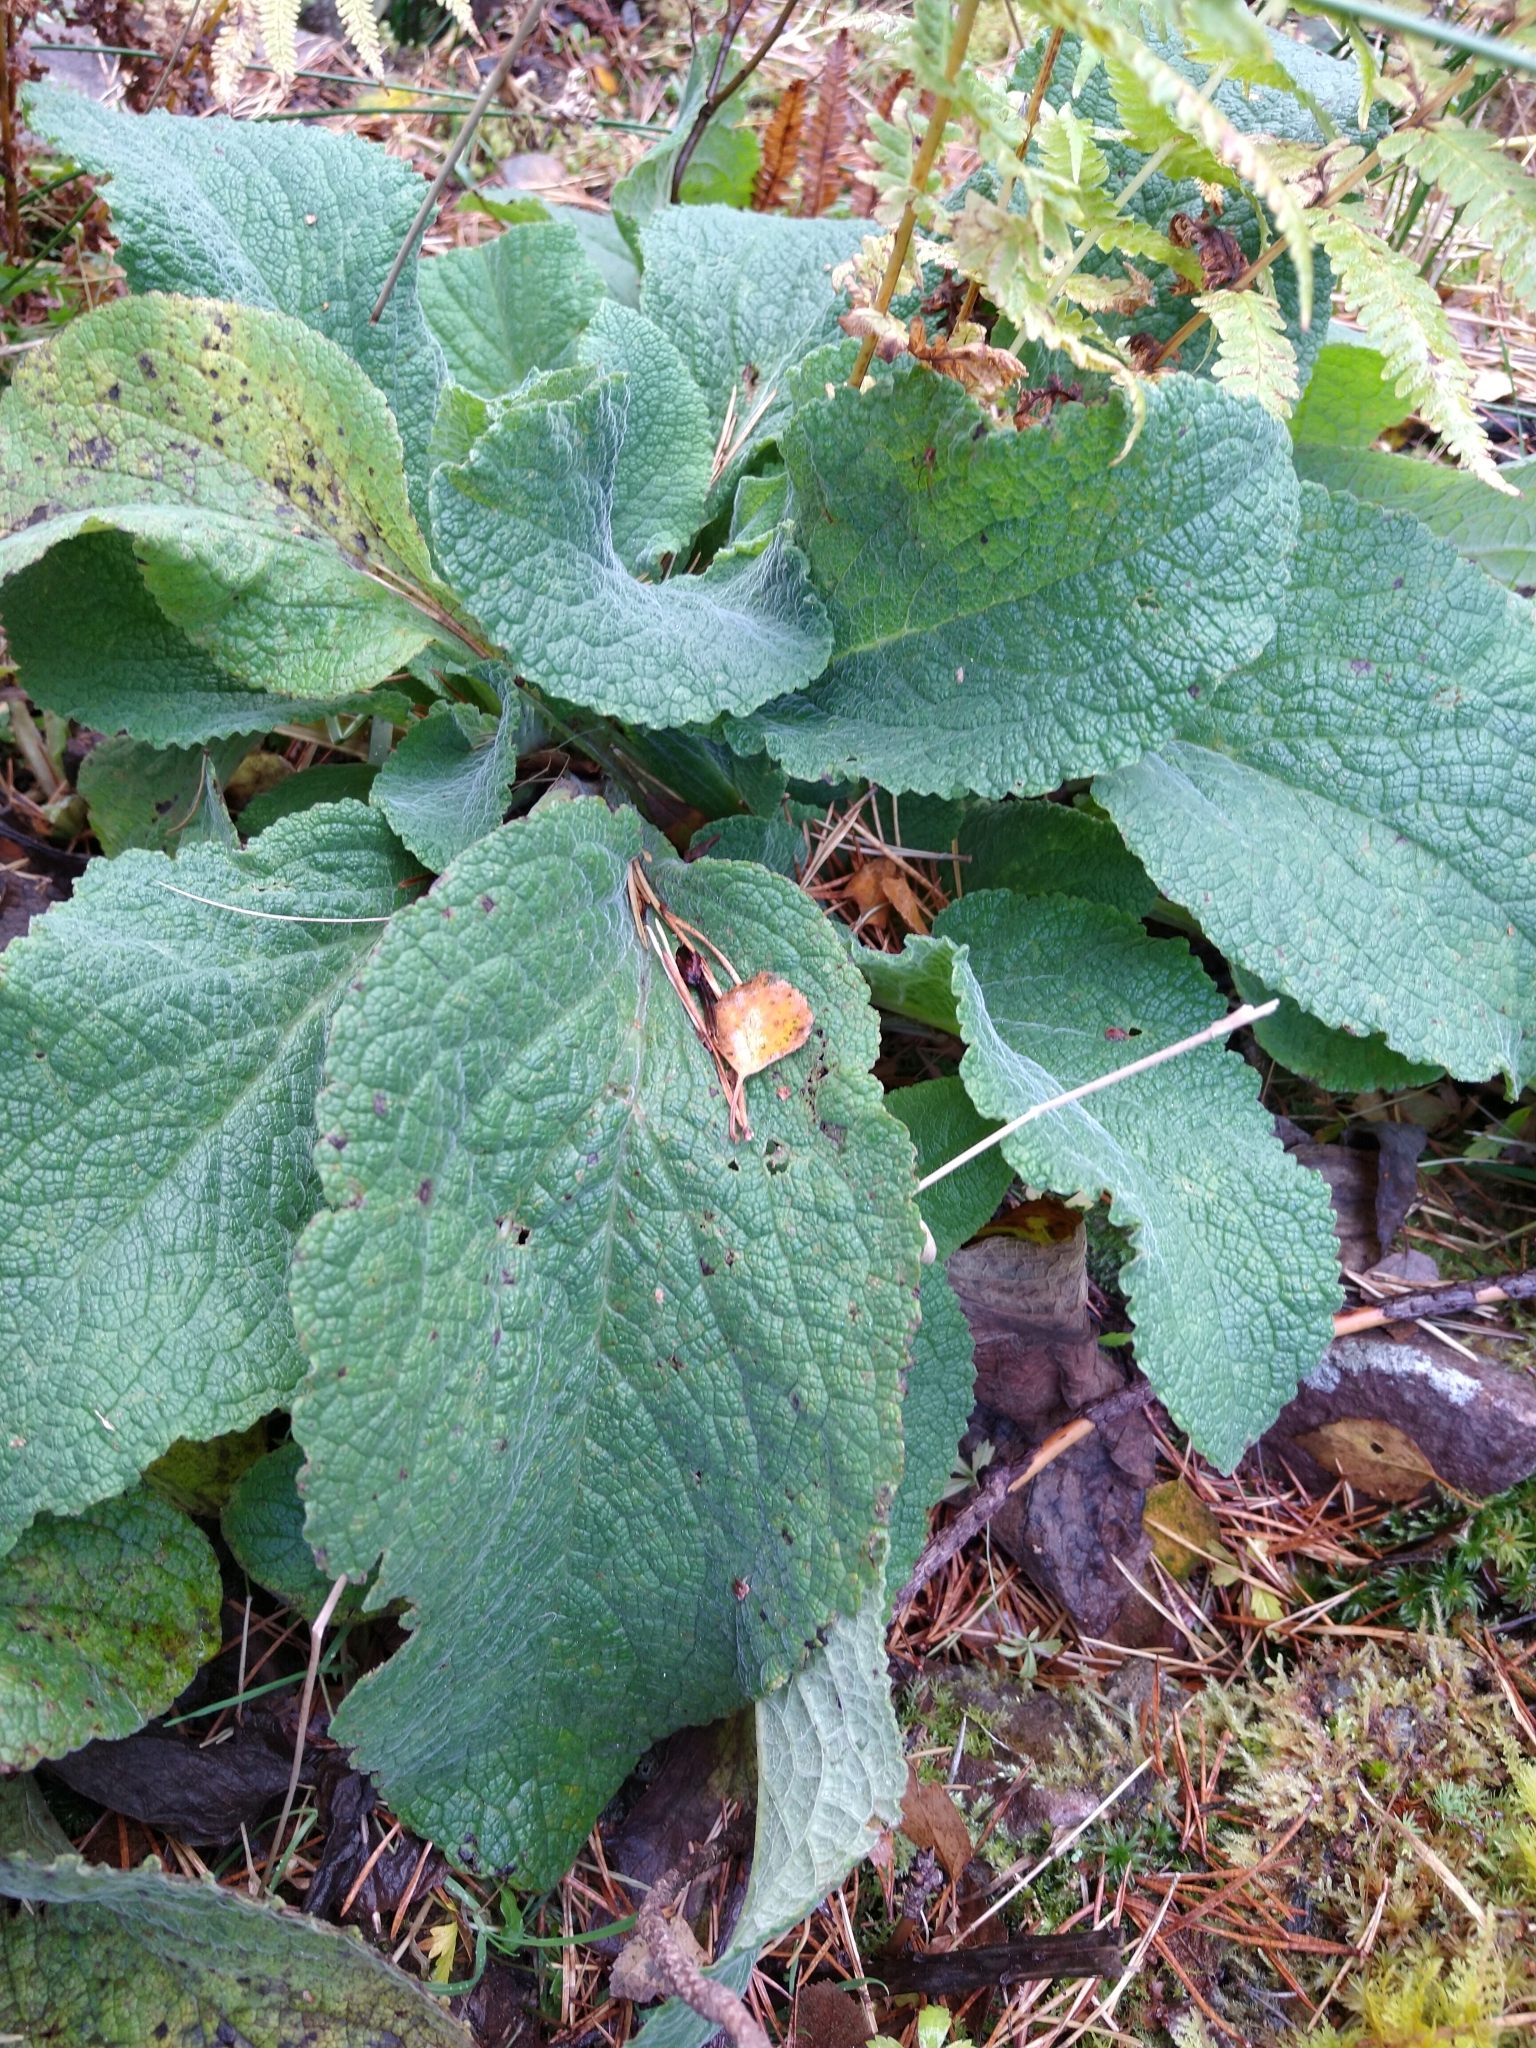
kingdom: Plantae
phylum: Tracheophyta
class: Magnoliopsida
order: Lamiales
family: Plantaginaceae
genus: Digitalis
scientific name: Digitalis purpurea
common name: Foxglove
